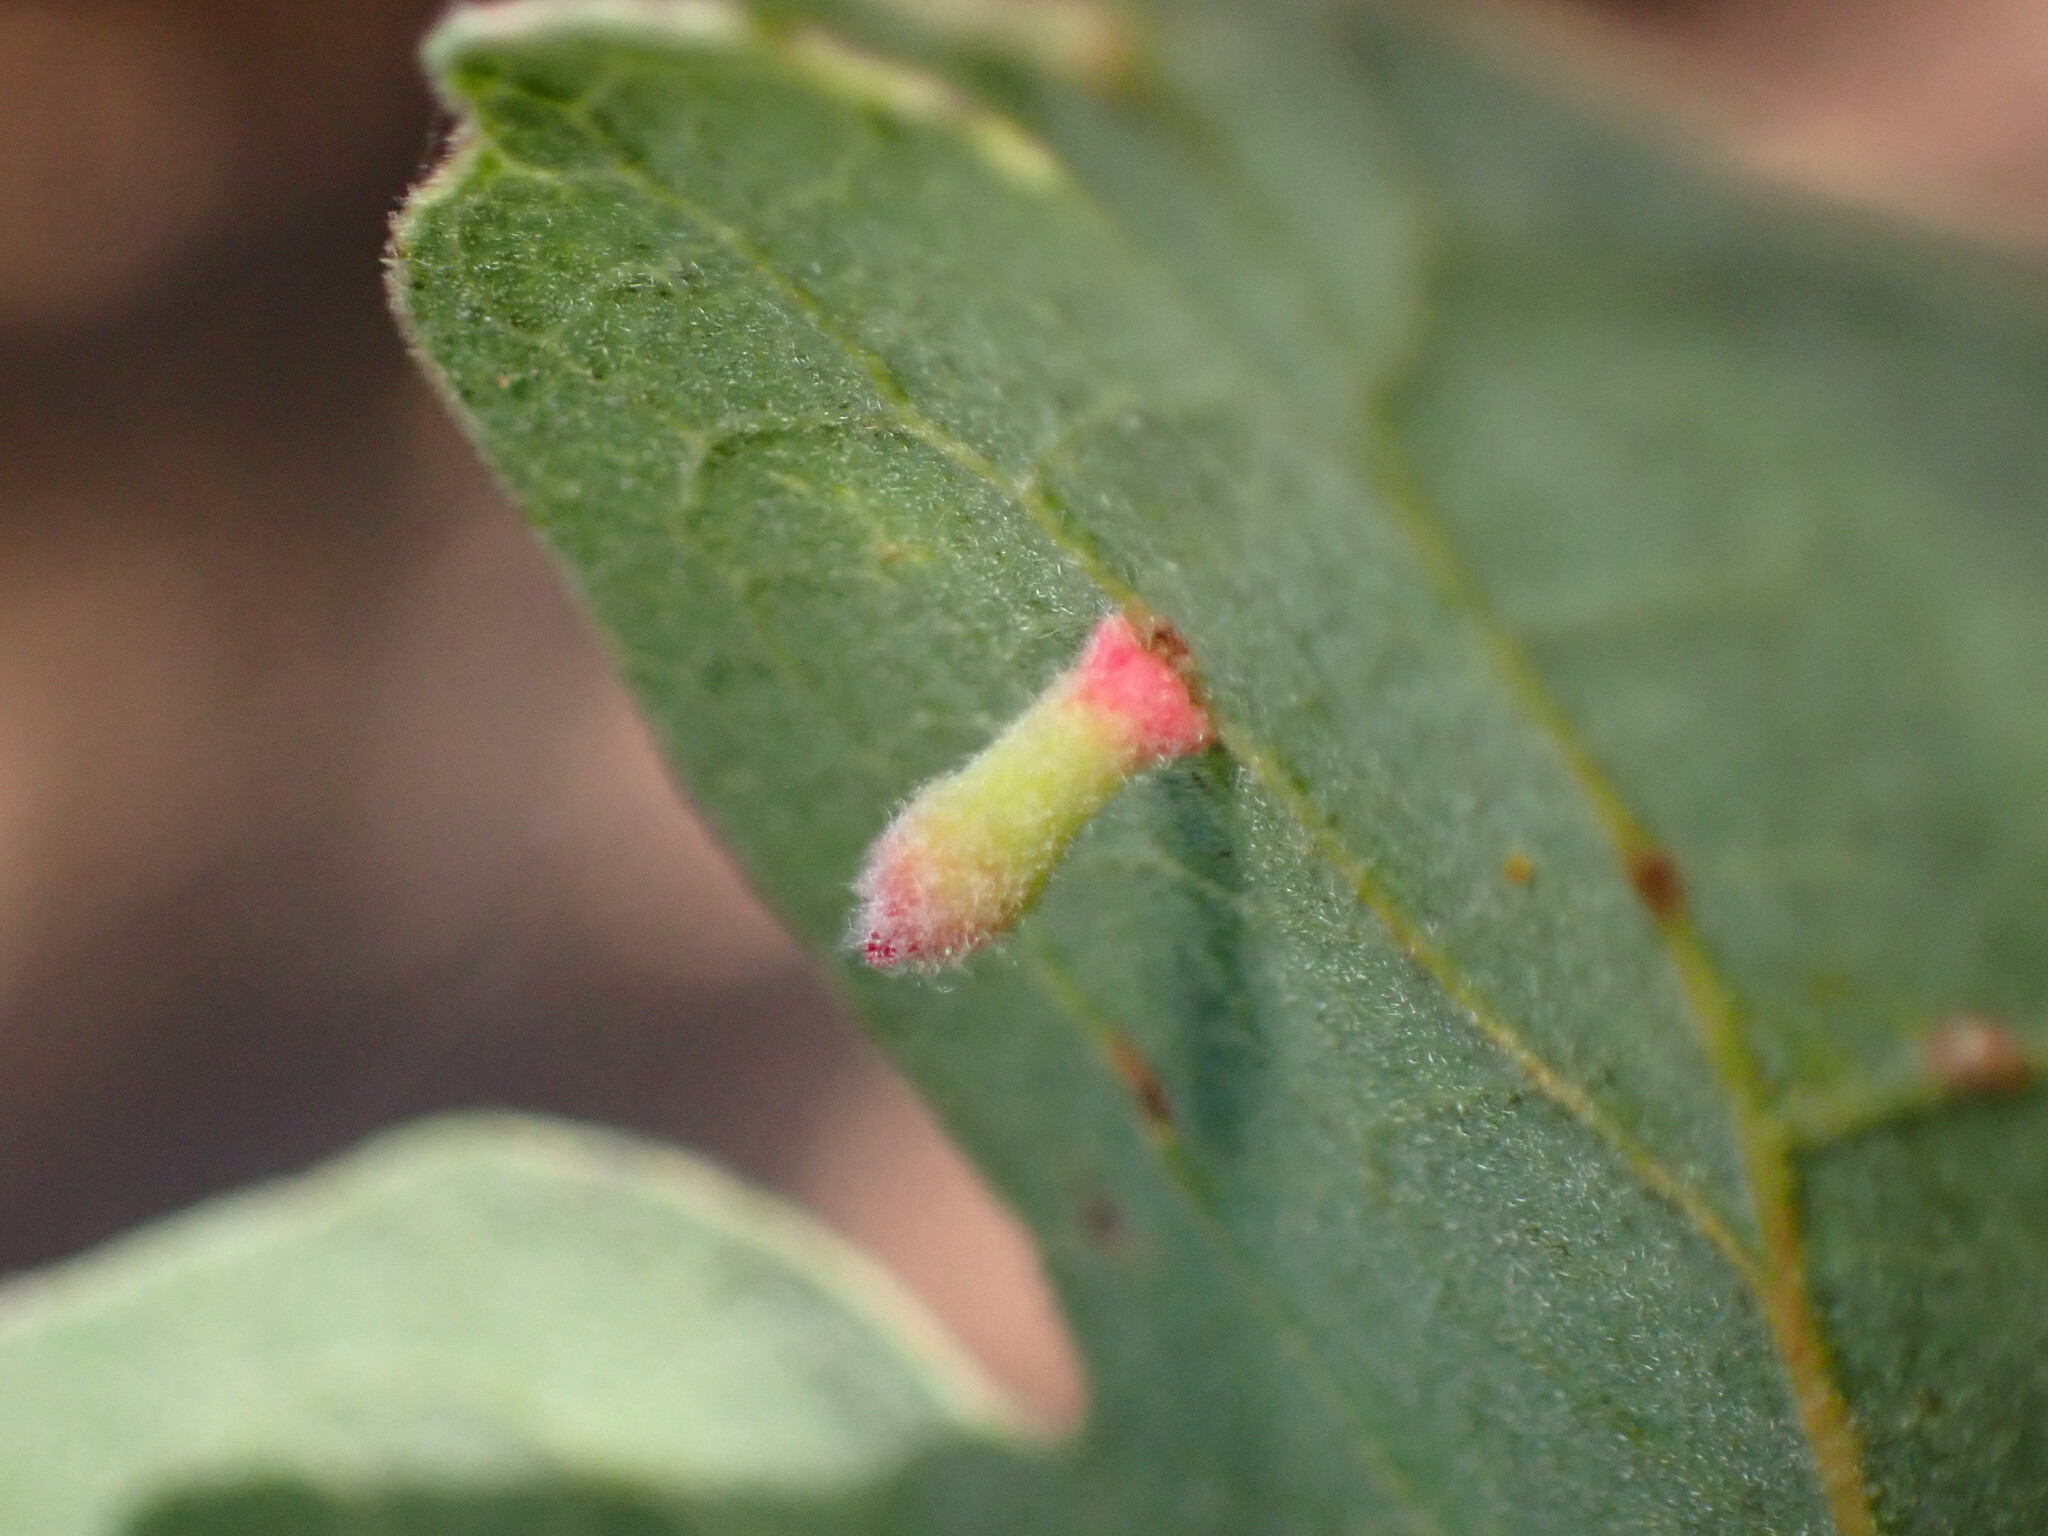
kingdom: Animalia
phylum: Arthropoda
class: Insecta
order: Hymenoptera
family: Cynipidae
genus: Atrusca
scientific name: Atrusca
